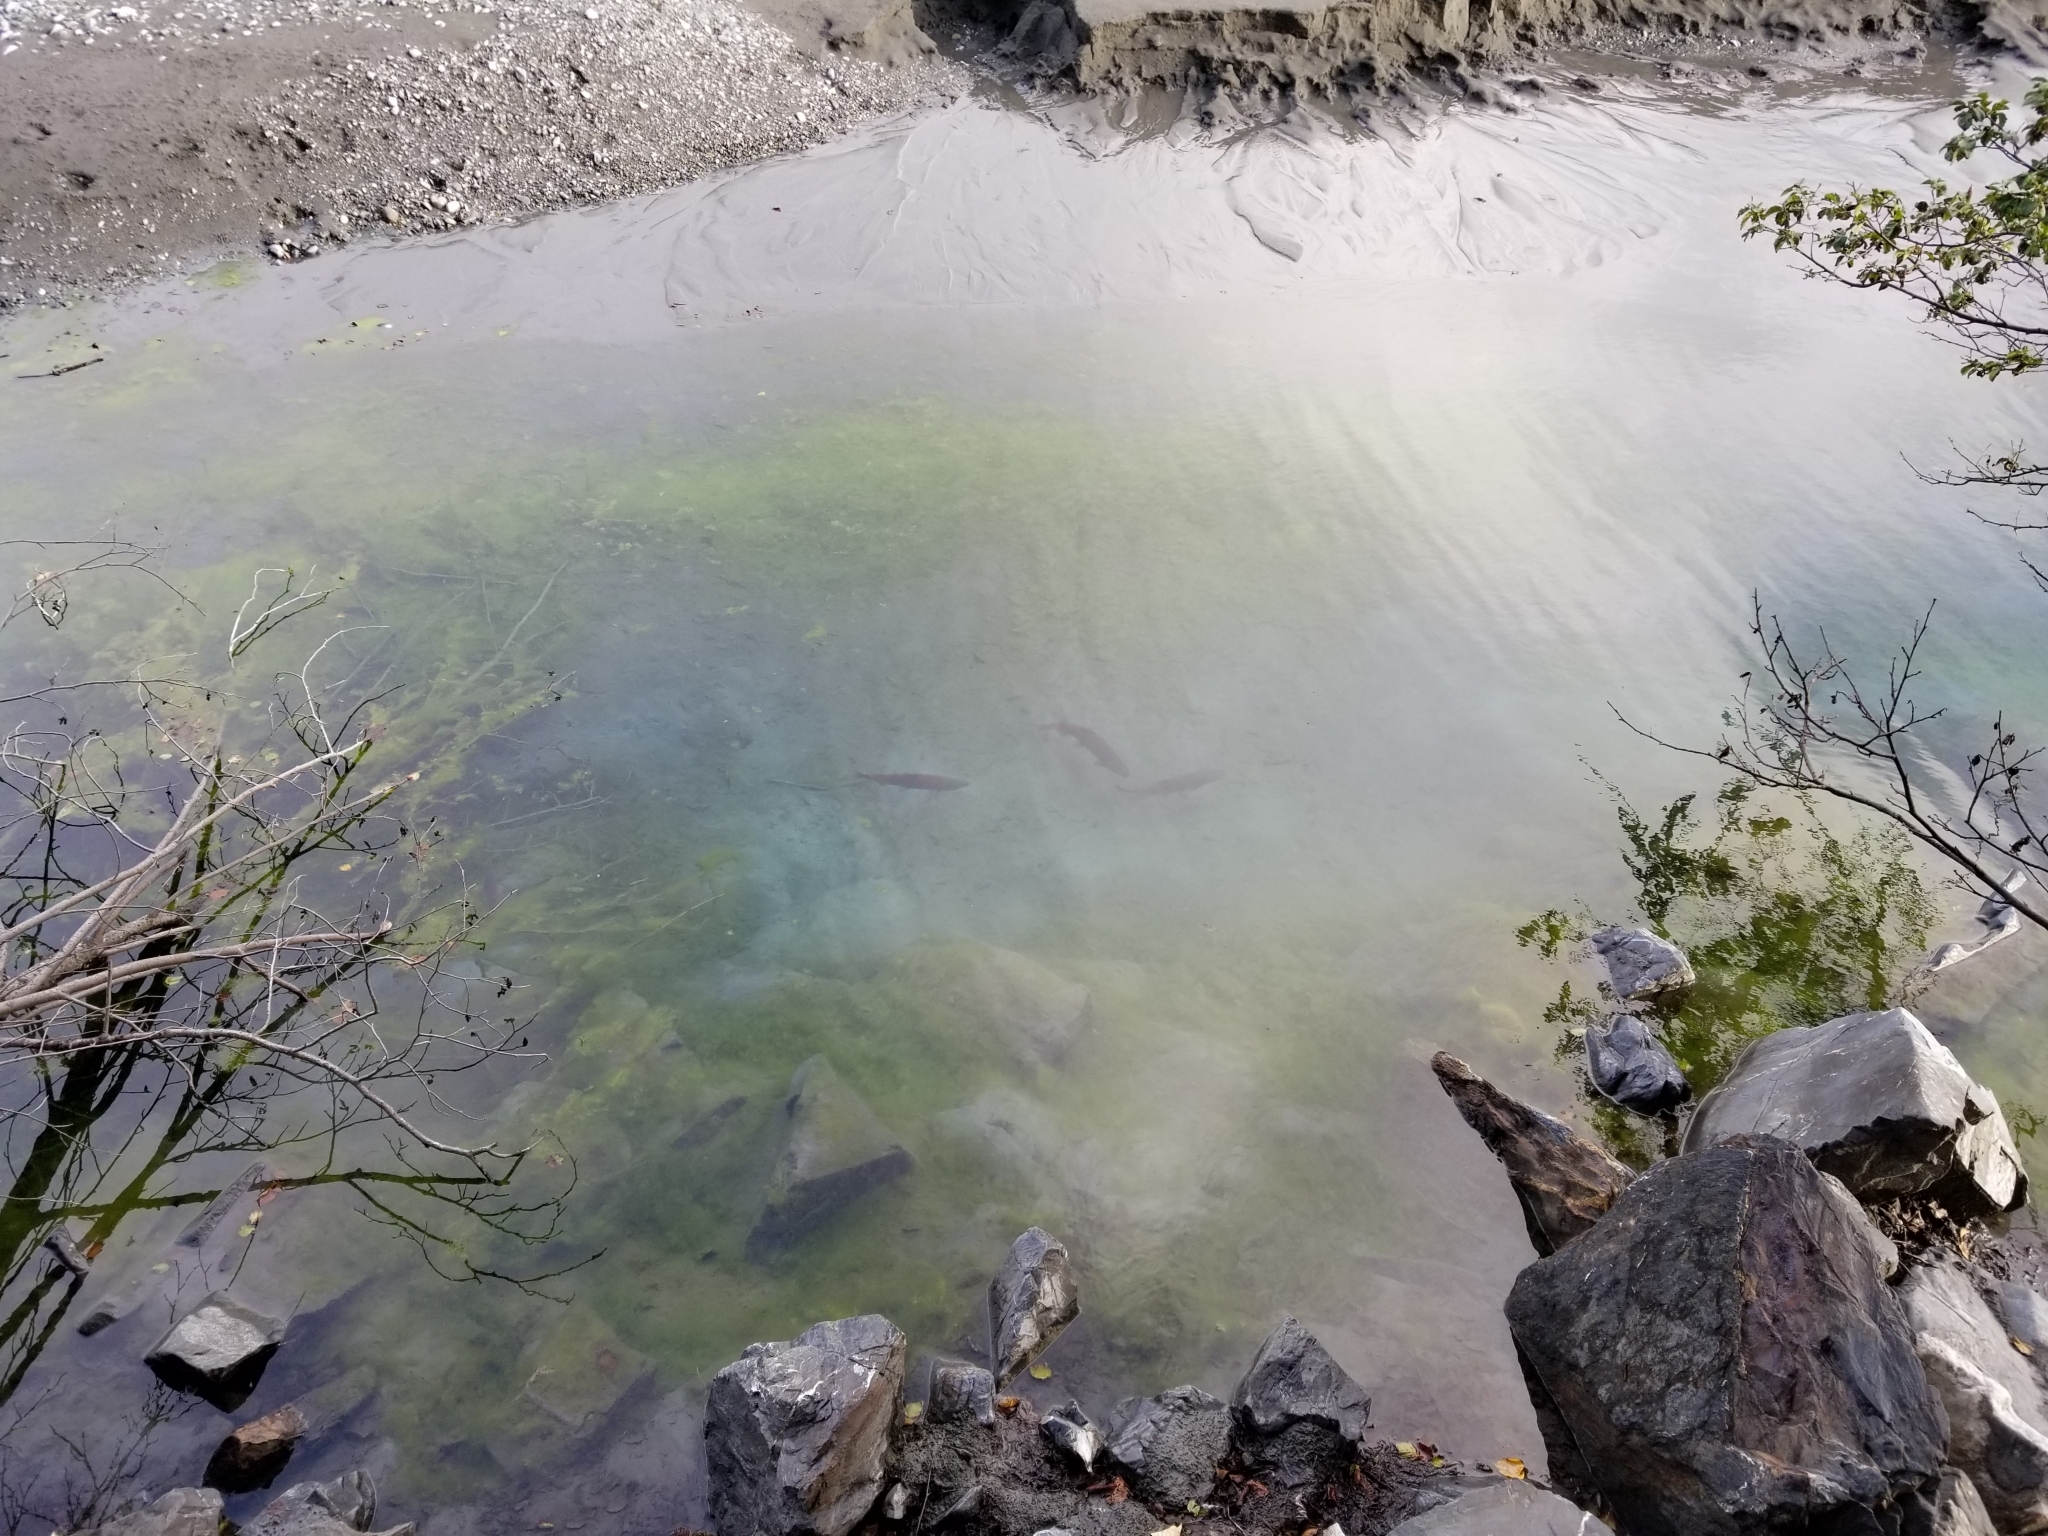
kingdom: Animalia
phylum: Chordata
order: Salmoniformes
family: Salmonidae
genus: Oncorhynchus
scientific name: Oncorhynchus nerka
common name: Sockeye salmon
